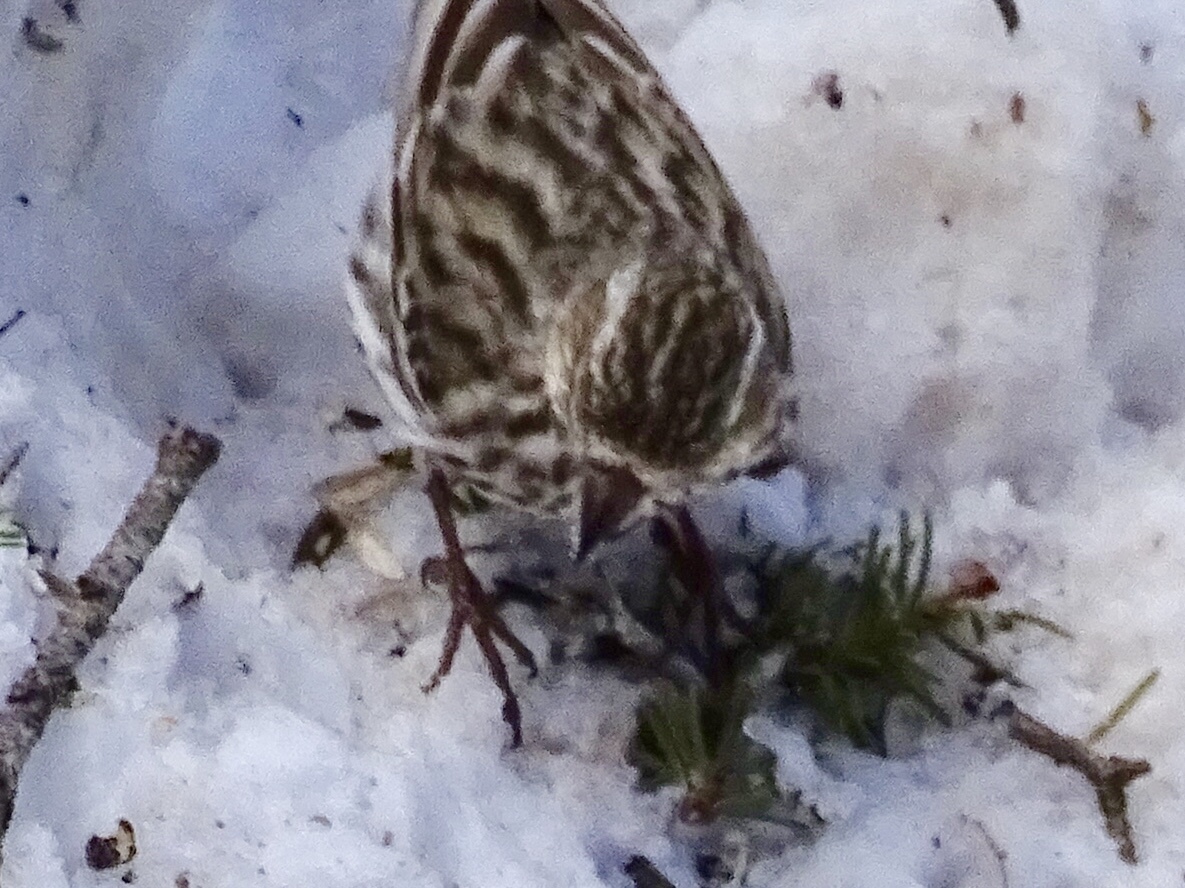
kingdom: Animalia
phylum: Chordata
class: Aves
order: Passeriformes
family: Fringillidae
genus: Haemorhous
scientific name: Haemorhous cassinii
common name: Cassin's finch
